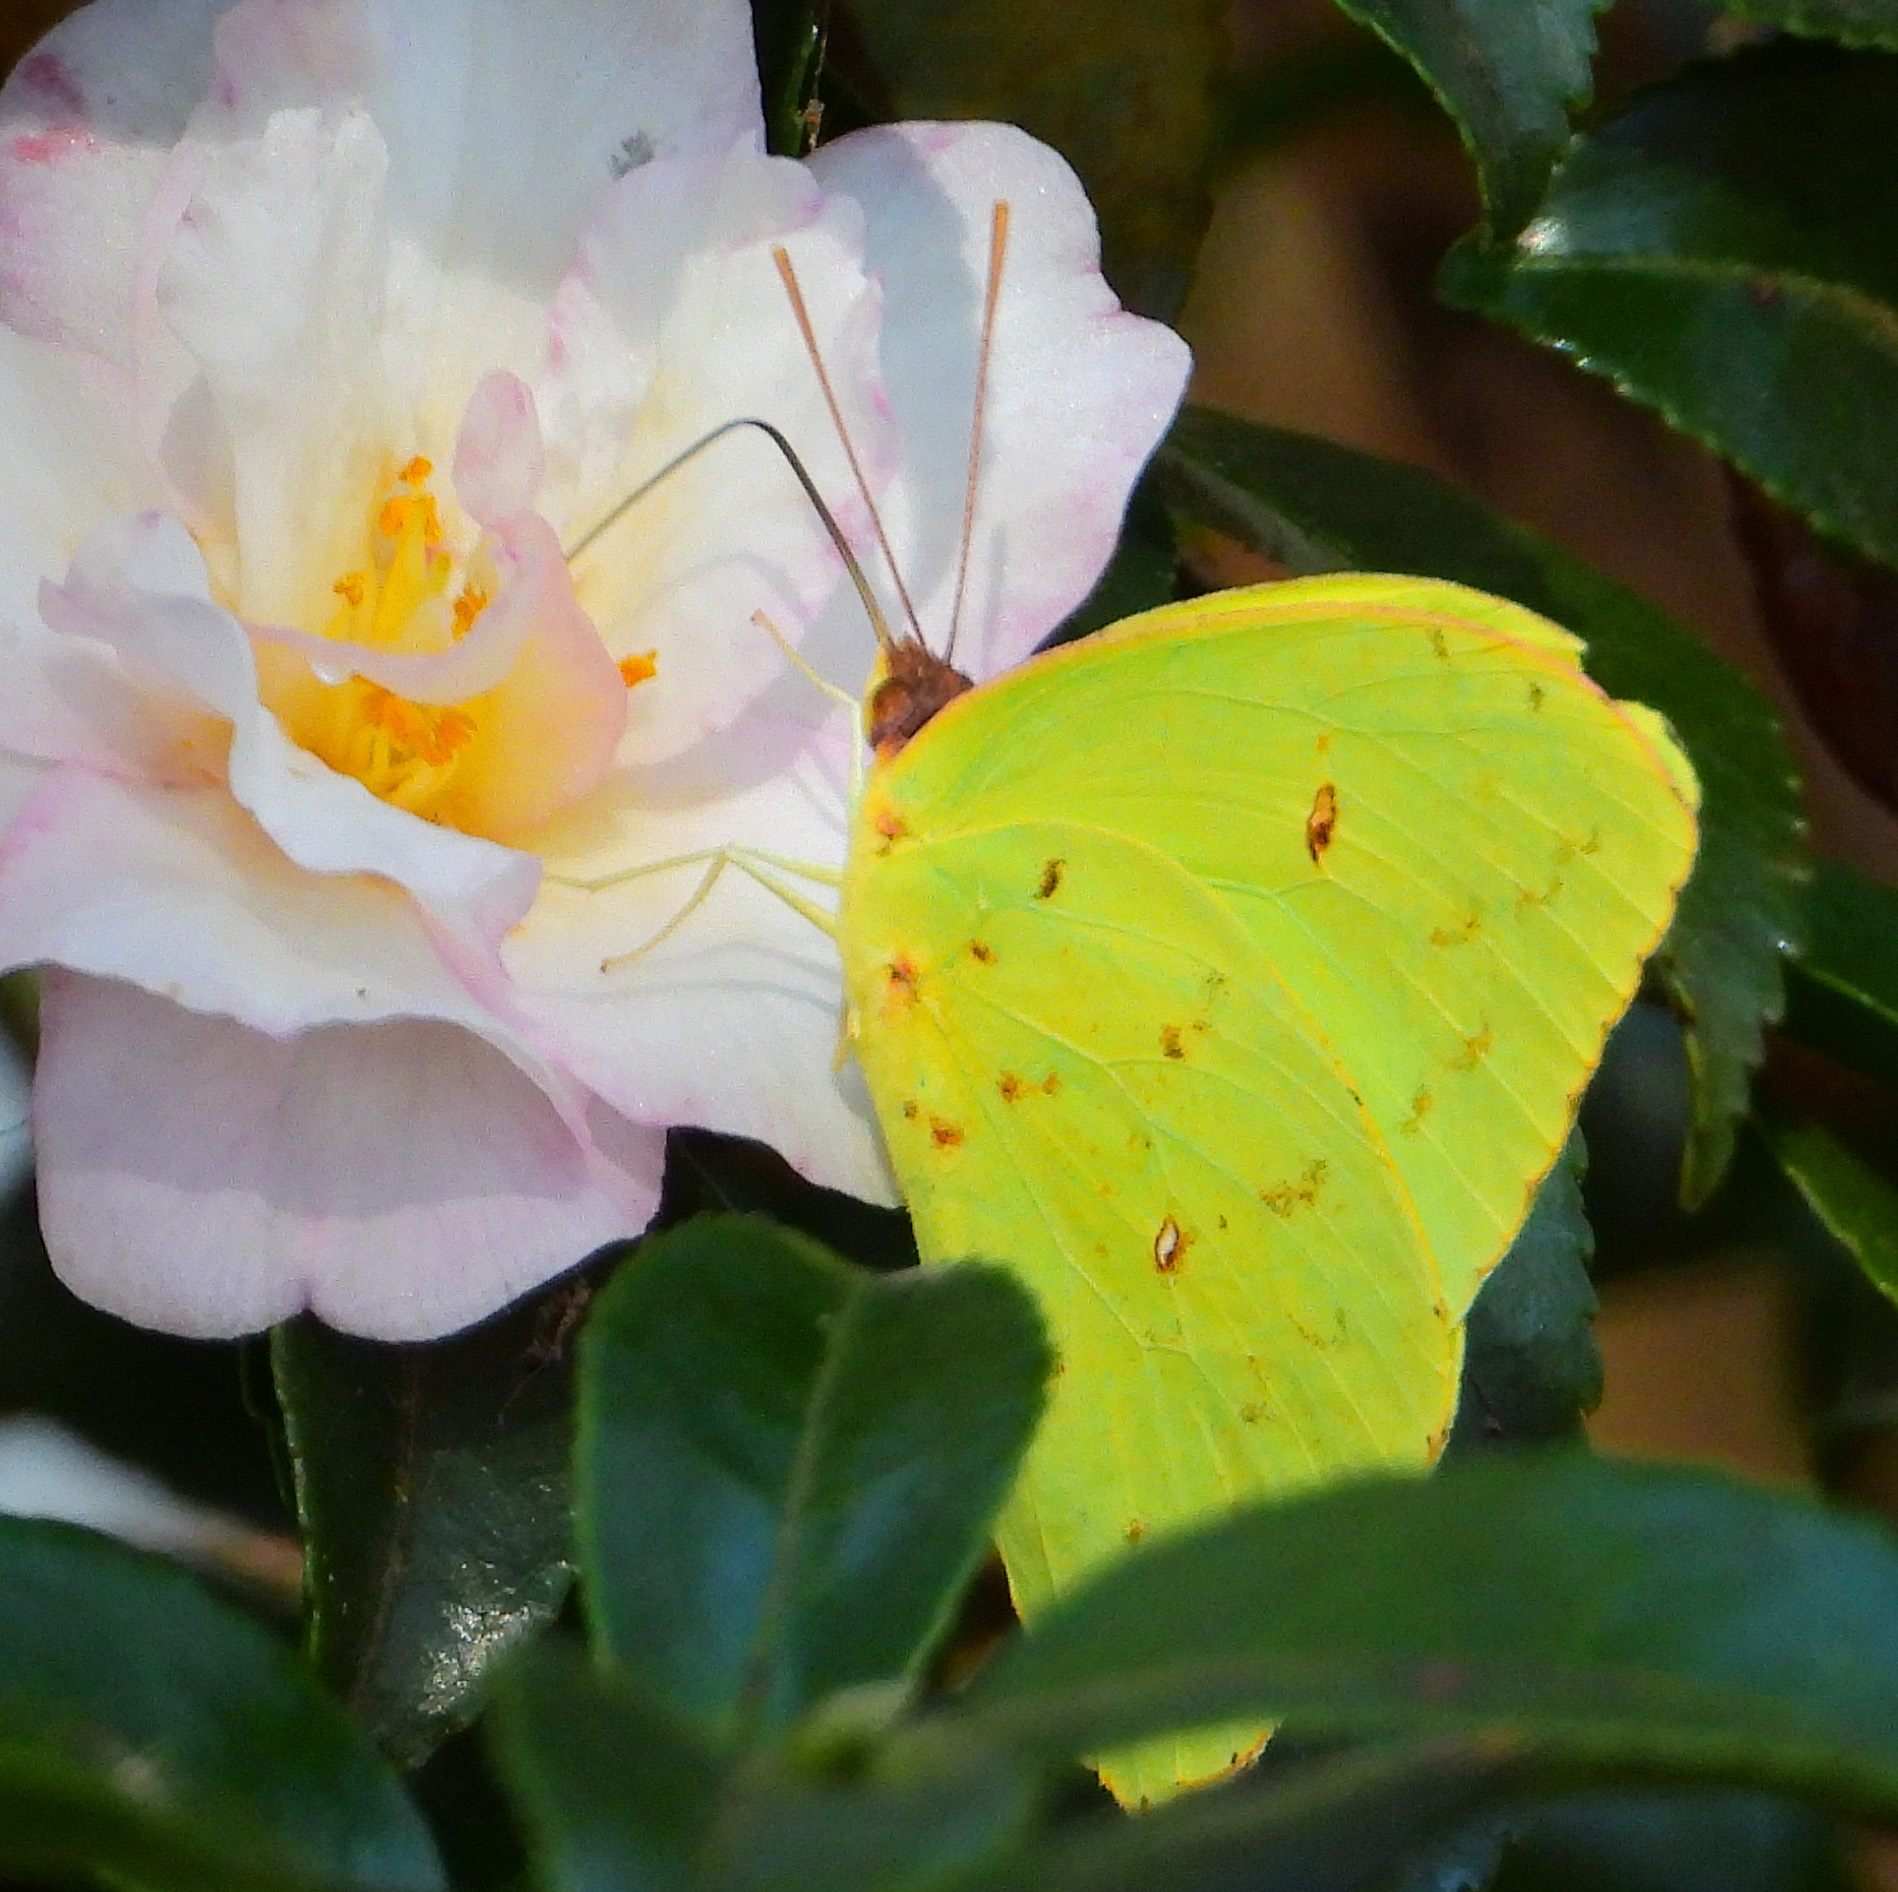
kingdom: Animalia
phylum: Arthropoda
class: Insecta
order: Lepidoptera
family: Pieridae
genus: Phoebis
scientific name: Phoebis sennae
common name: Cloudless sulphur
